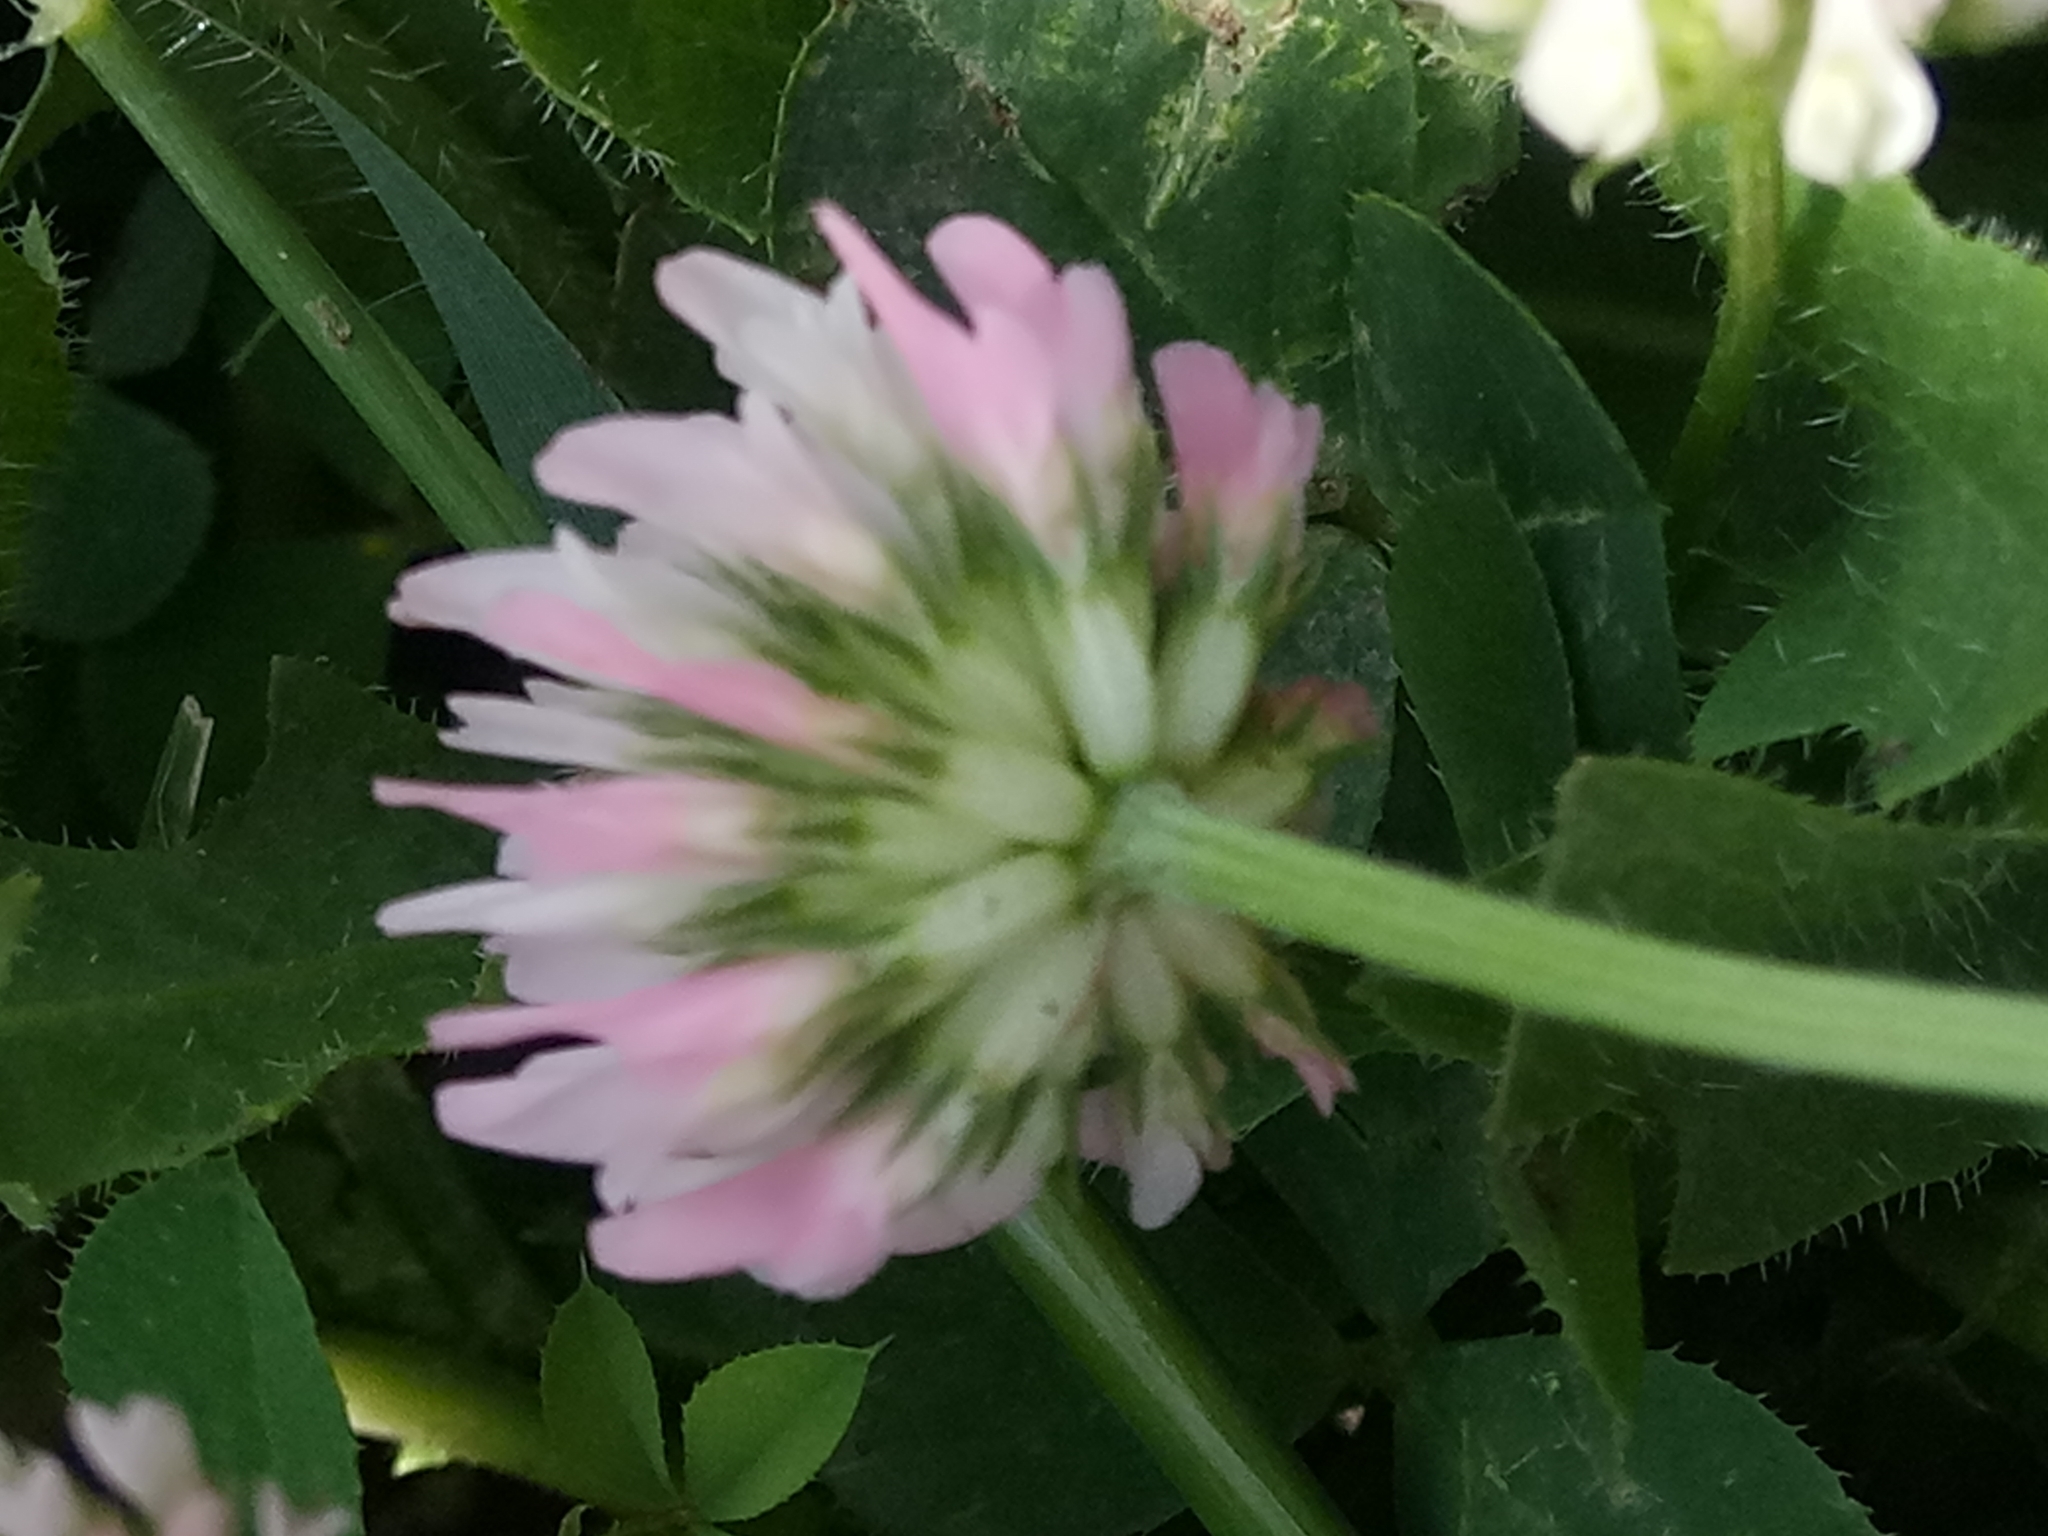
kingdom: Plantae
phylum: Tracheophyta
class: Magnoliopsida
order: Fabales
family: Fabaceae
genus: Trifolium
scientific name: Trifolium isthmocarpum
